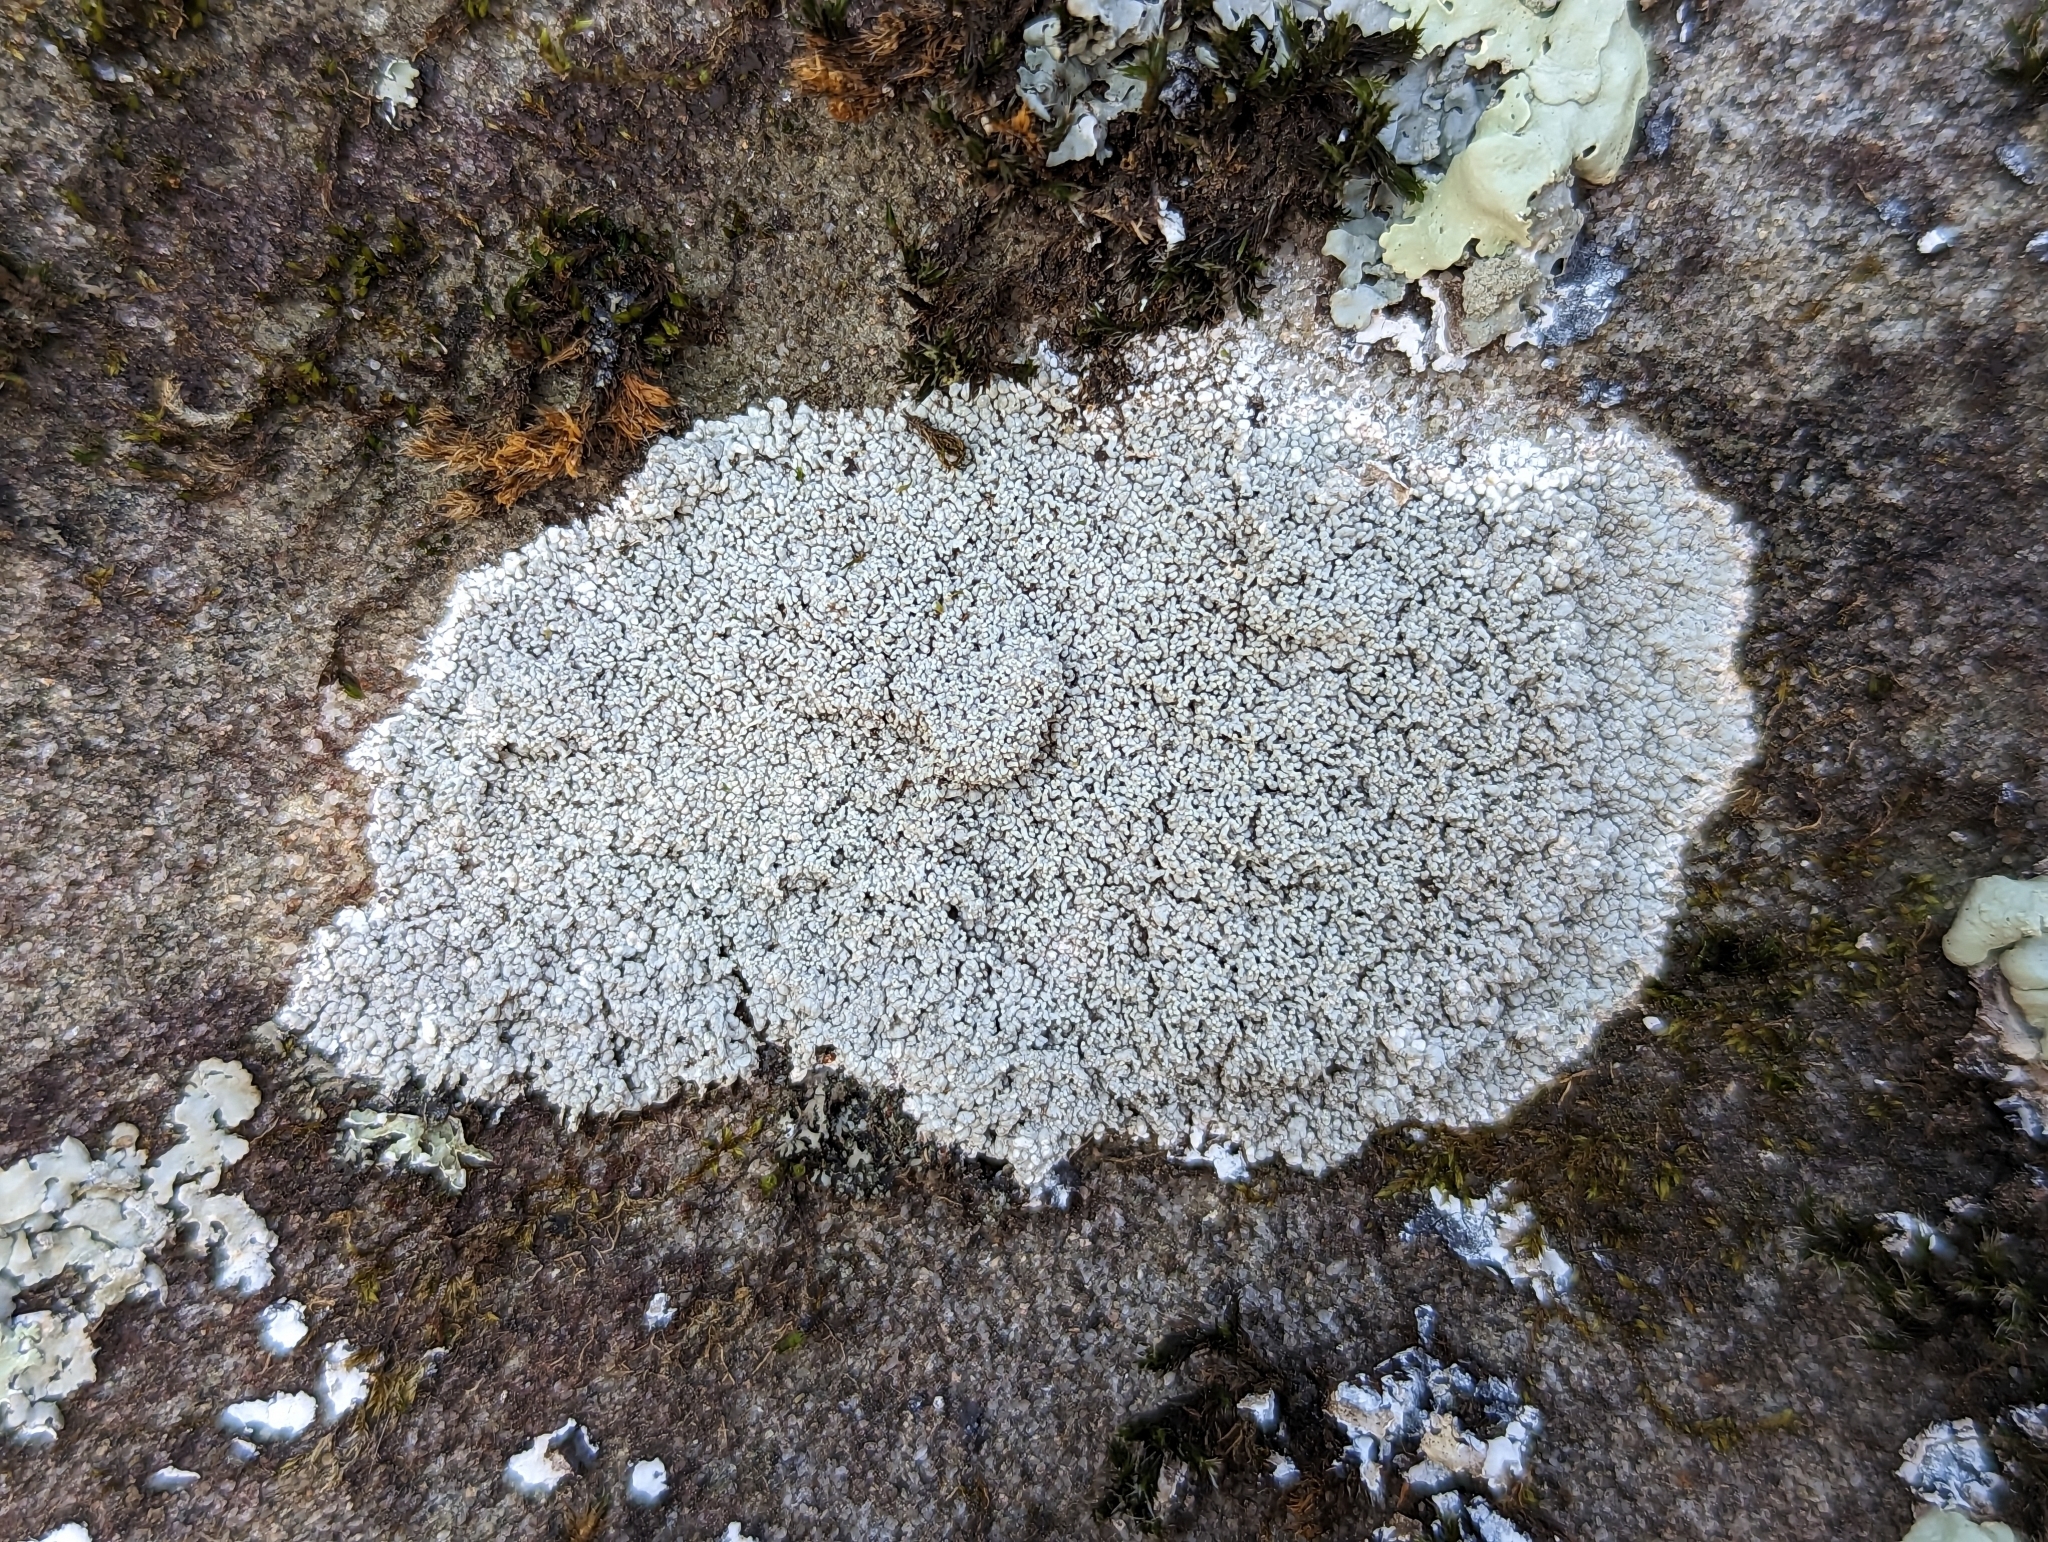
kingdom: Fungi
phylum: Ascomycota
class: Lecanoromycetes
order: Pertusariales
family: Ochrolechiaceae
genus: Ochrolechia
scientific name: Ochrolechia yasudae
